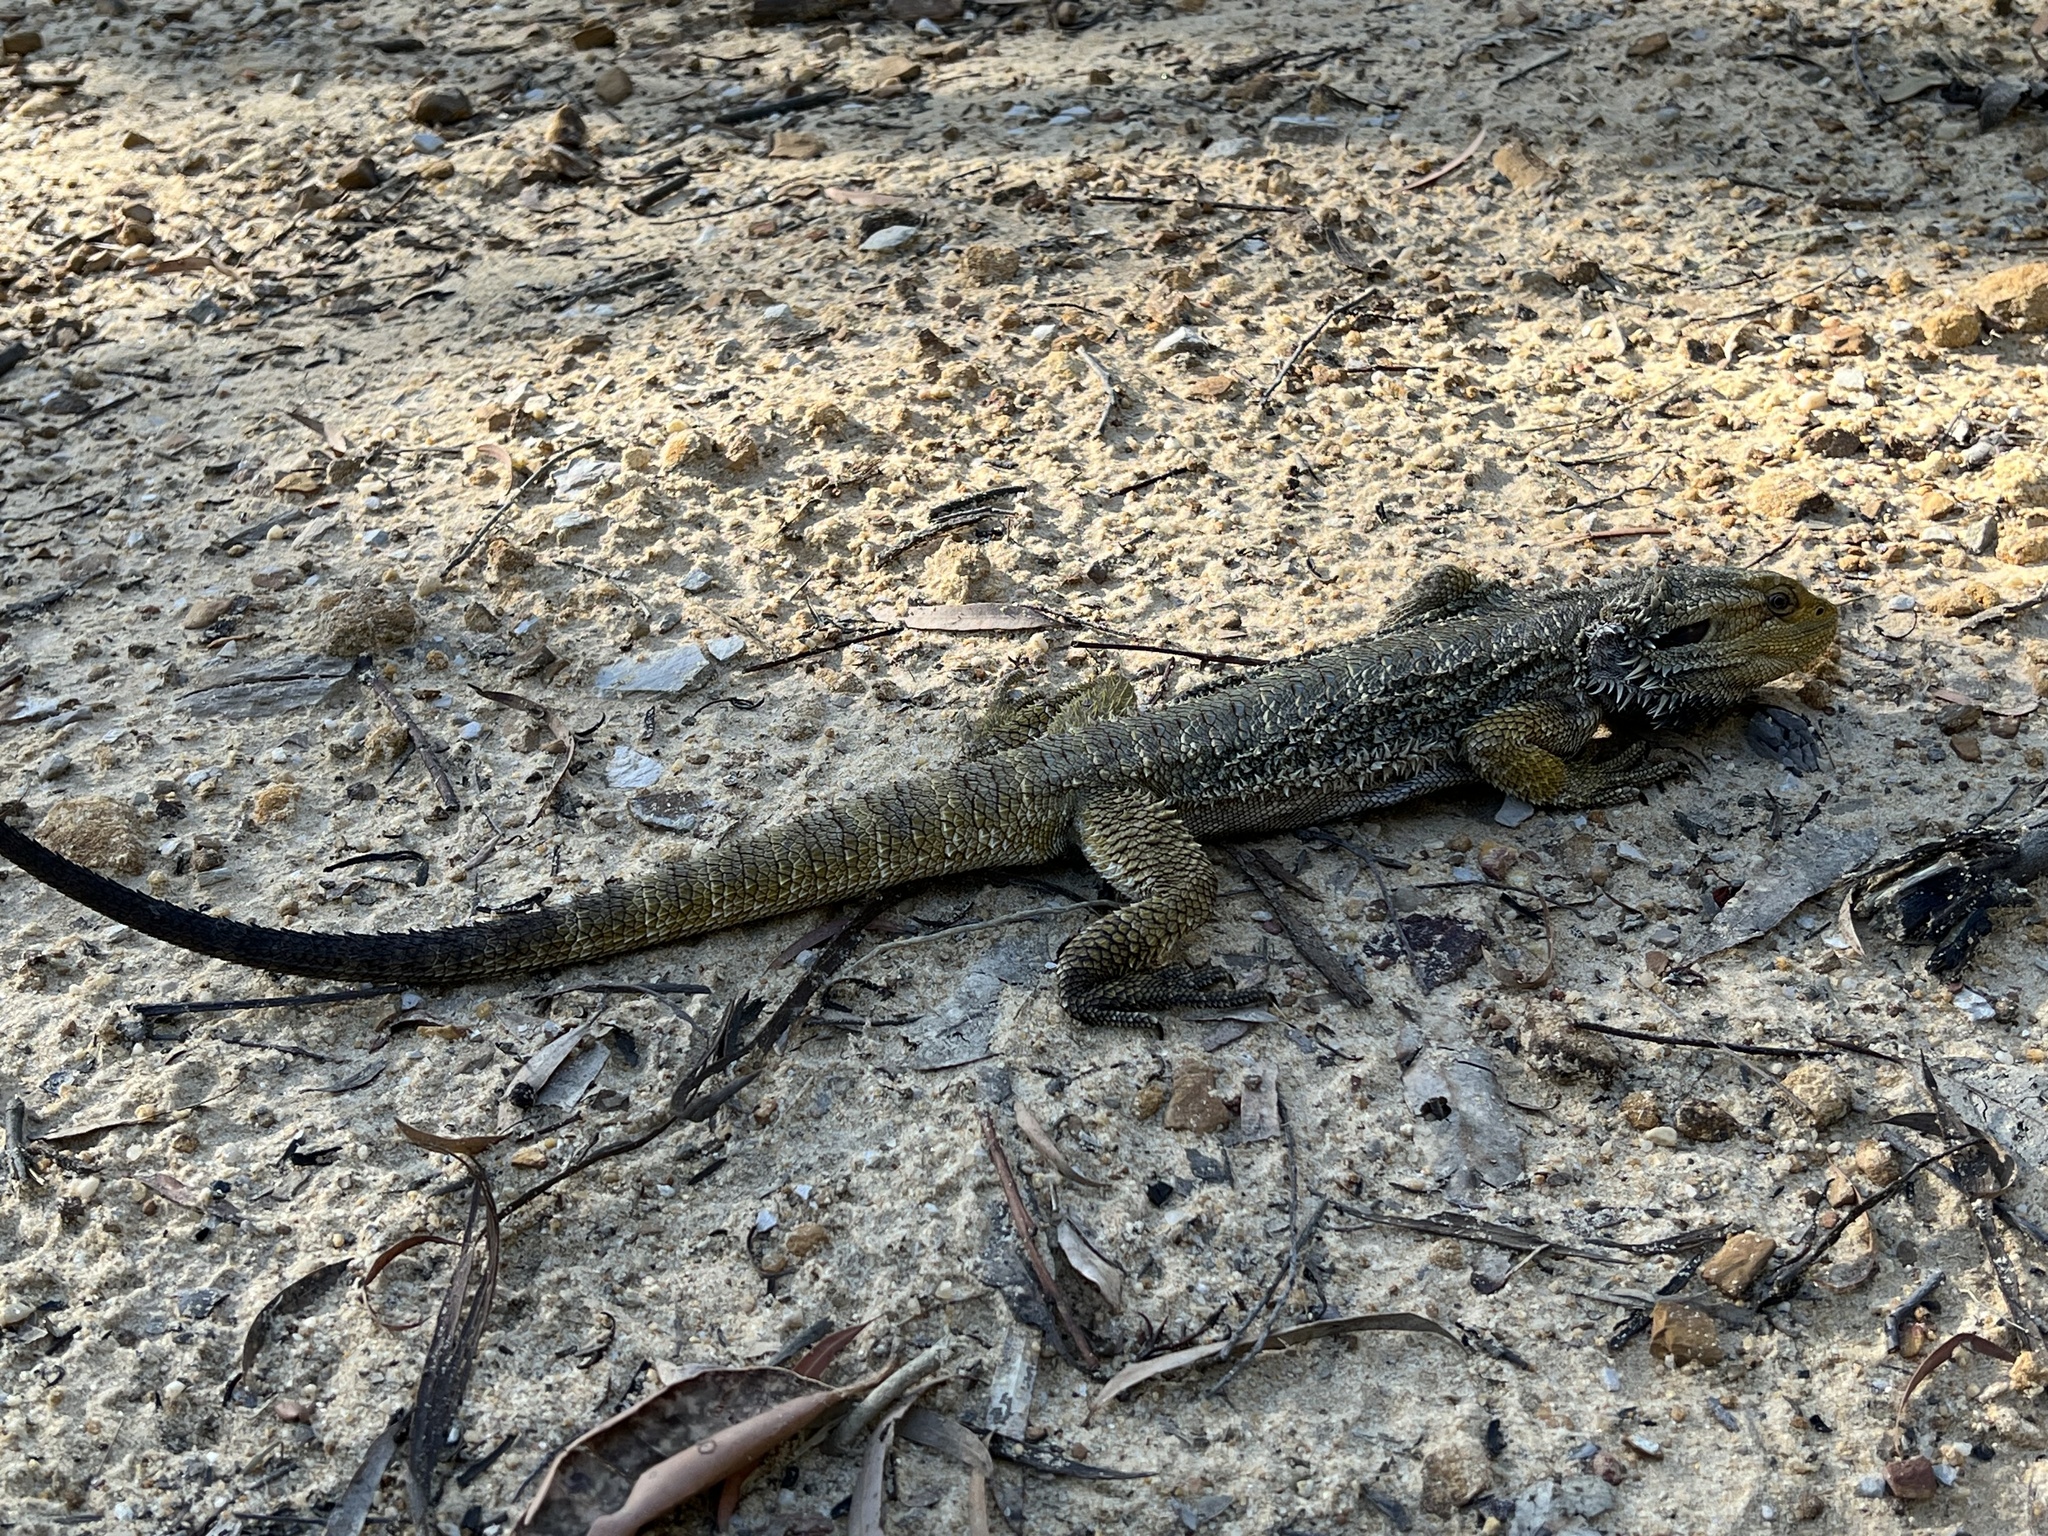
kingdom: Animalia
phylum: Chordata
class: Squamata
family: Agamidae
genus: Pogona
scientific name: Pogona barbata
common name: Bearded dragon
